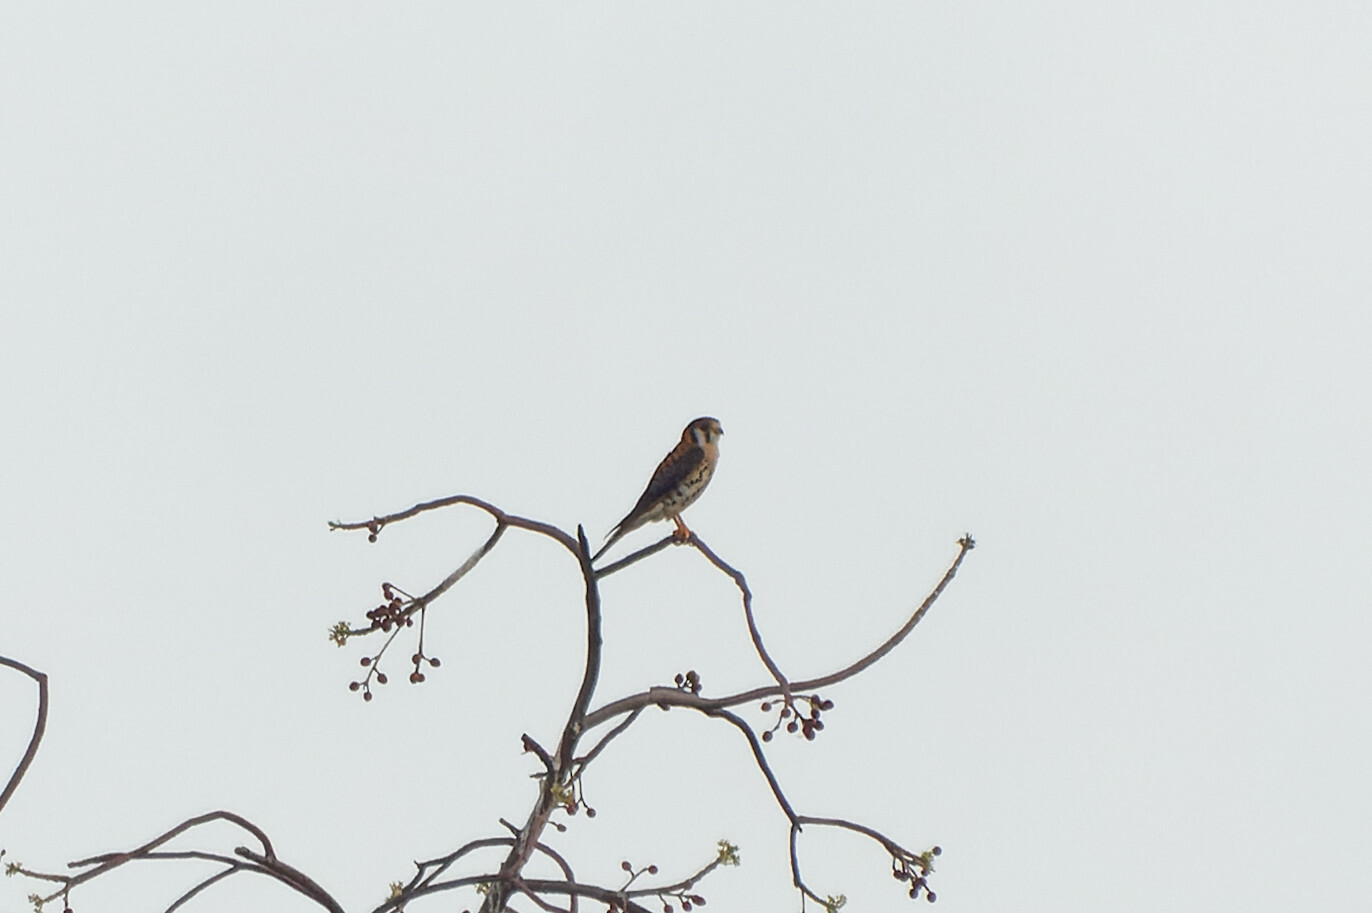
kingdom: Animalia
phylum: Chordata
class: Aves
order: Falconiformes
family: Falconidae
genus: Falco
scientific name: Falco sparverius
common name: American kestrel
